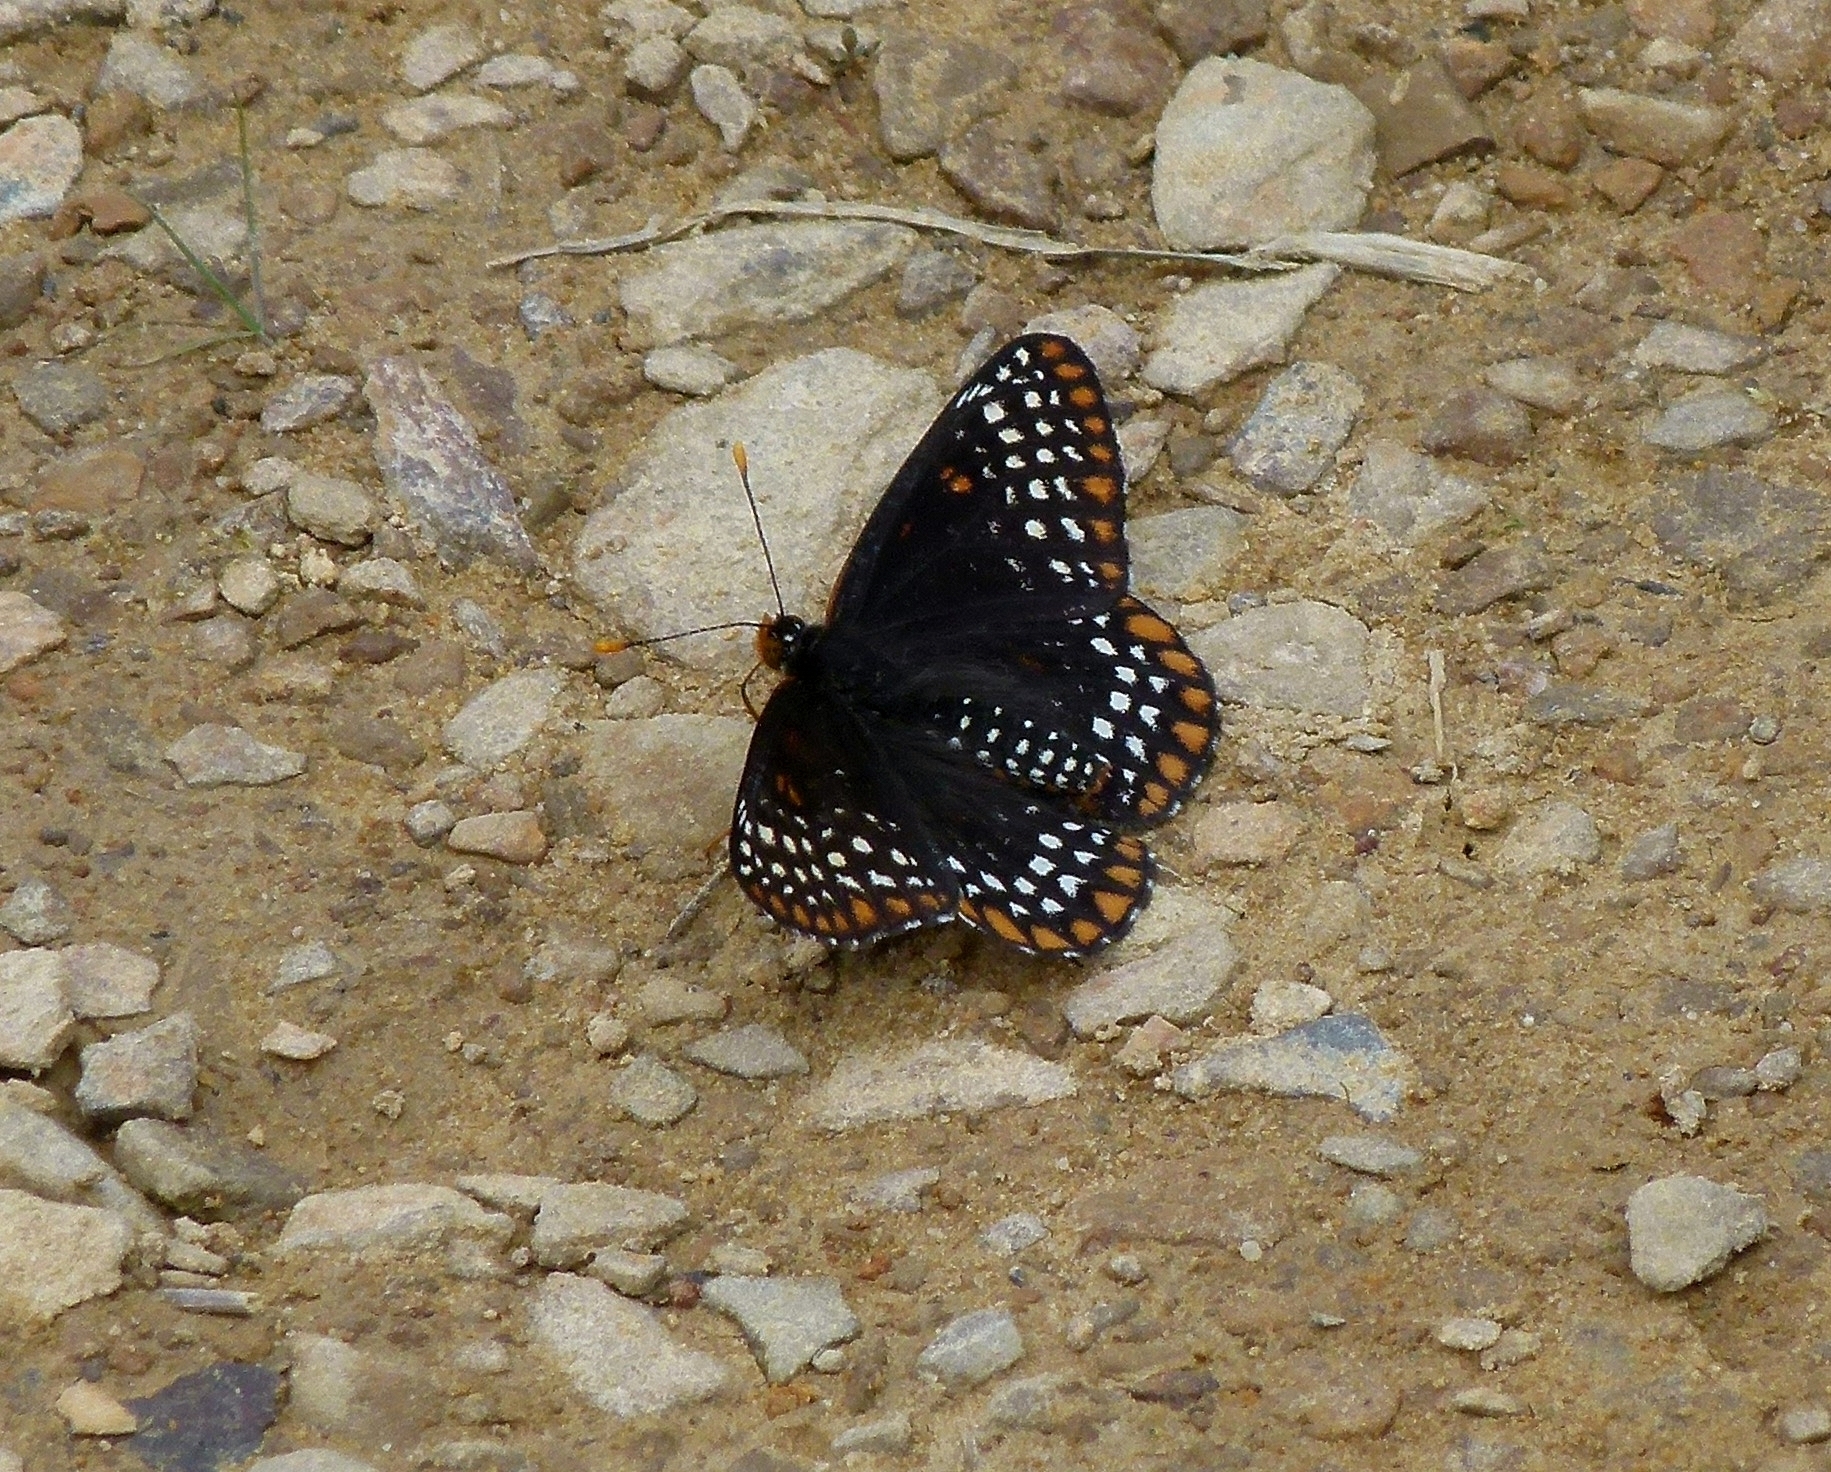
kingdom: Animalia
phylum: Arthropoda
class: Insecta
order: Lepidoptera
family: Nymphalidae
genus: Euphydryas
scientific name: Euphydryas phaeton
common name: Baltimore checkerspot
